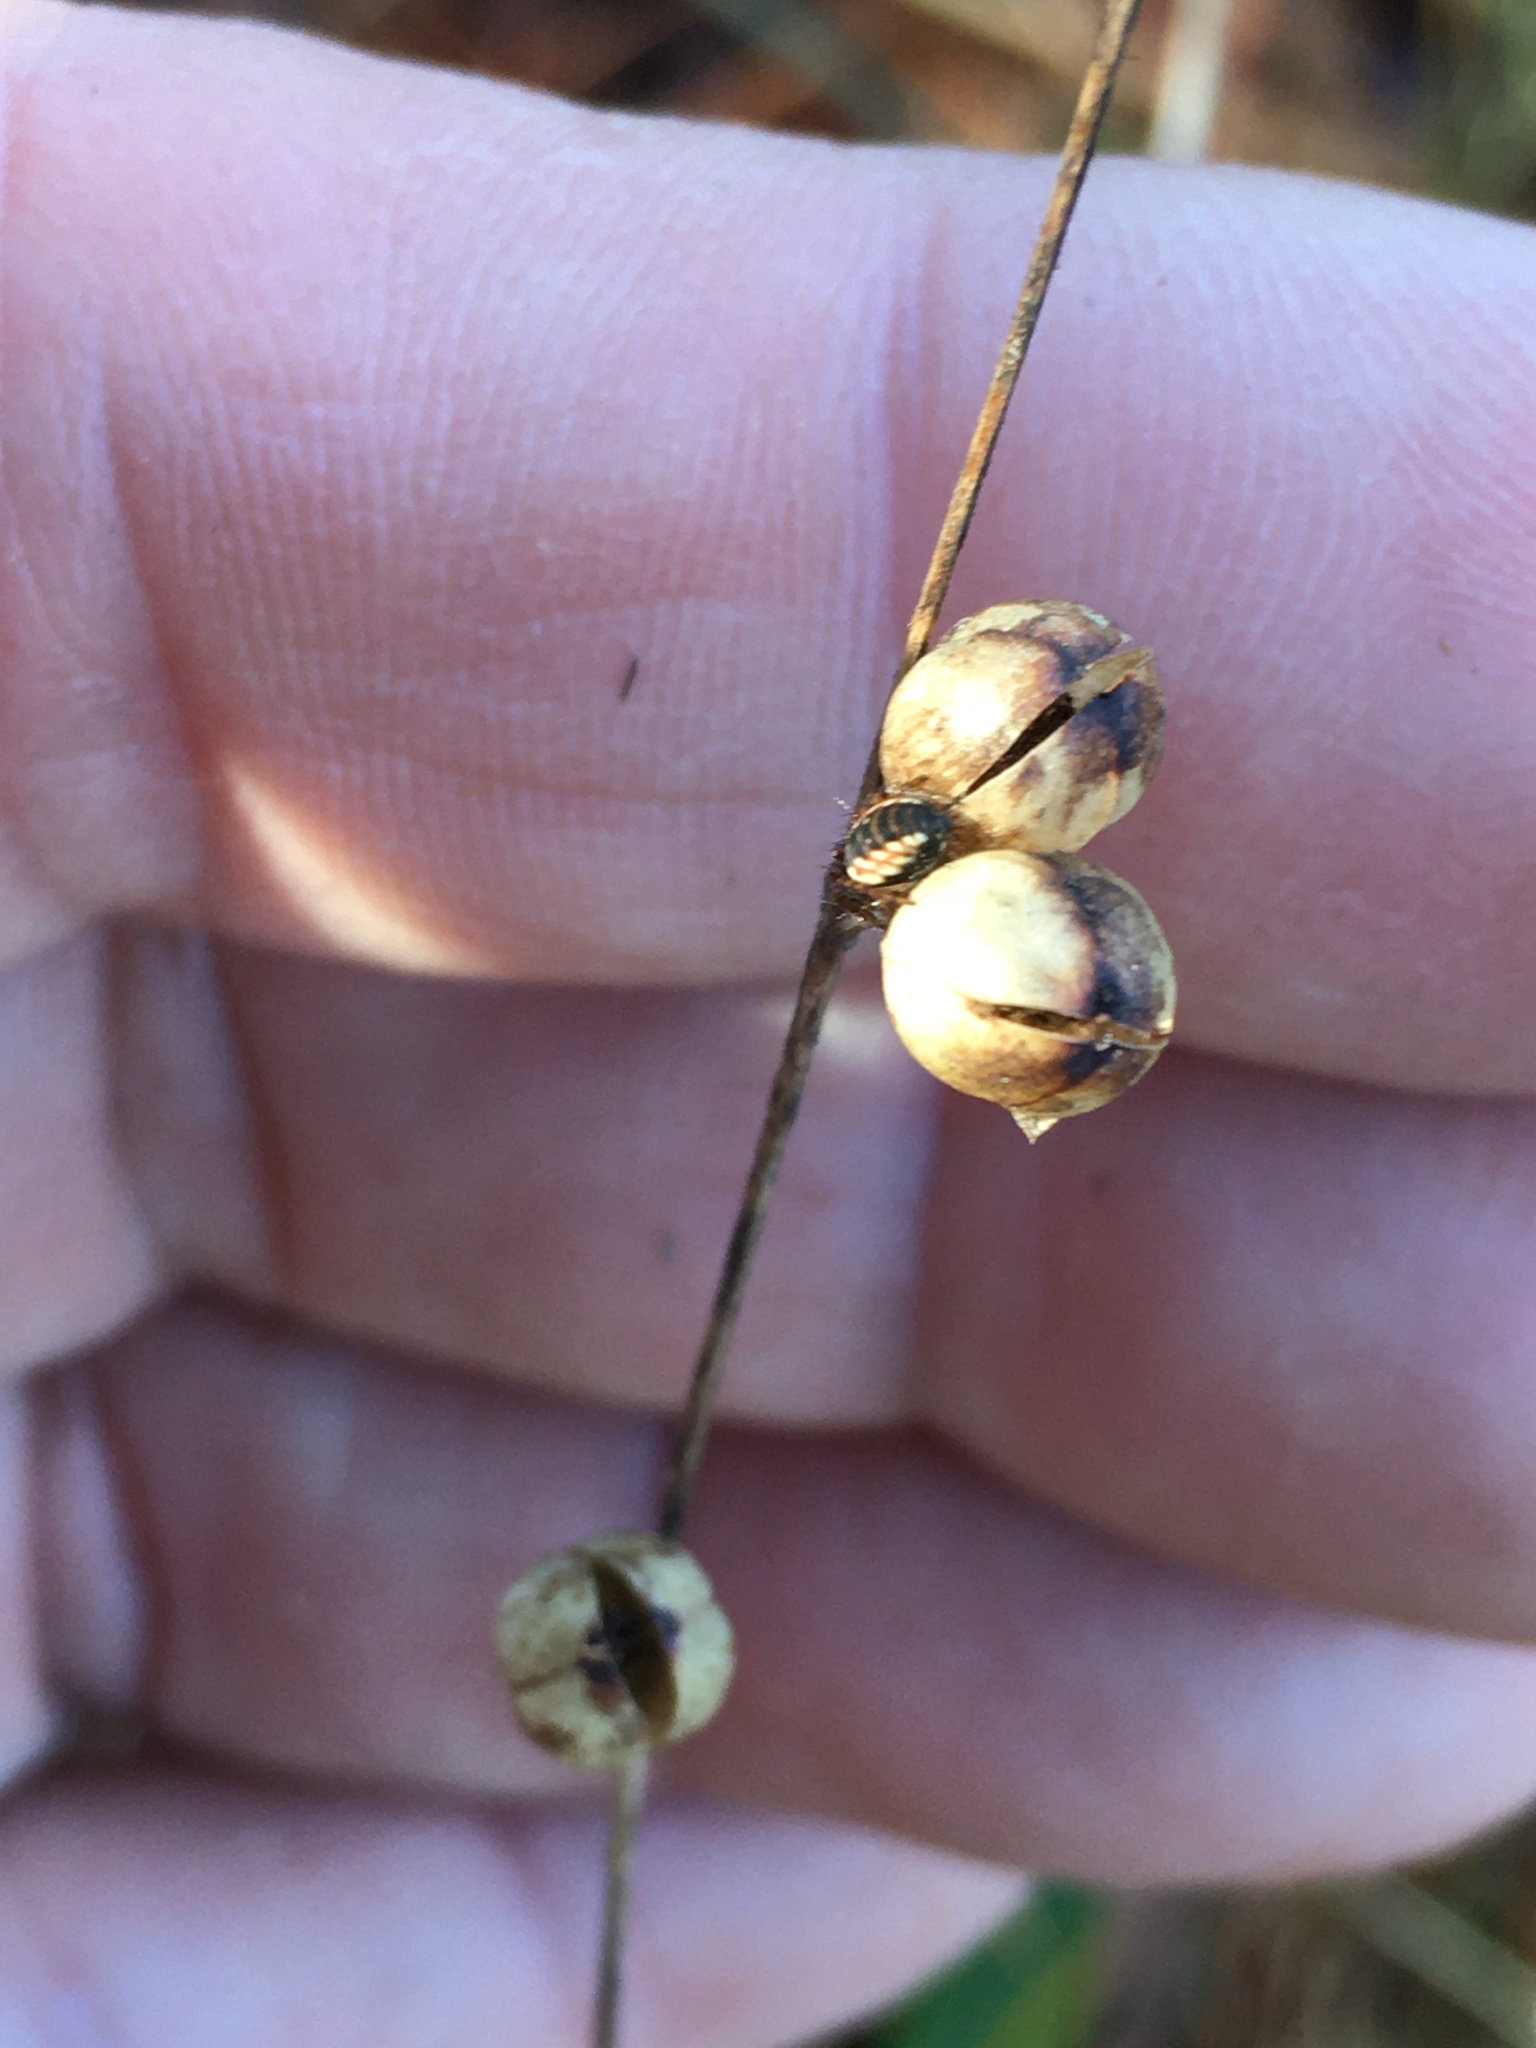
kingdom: Animalia
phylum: Arthropoda
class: Arachnida
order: Araneae
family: Araneidae
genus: Mangora
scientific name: Mangora placida
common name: Tuft-legged orbweaver
